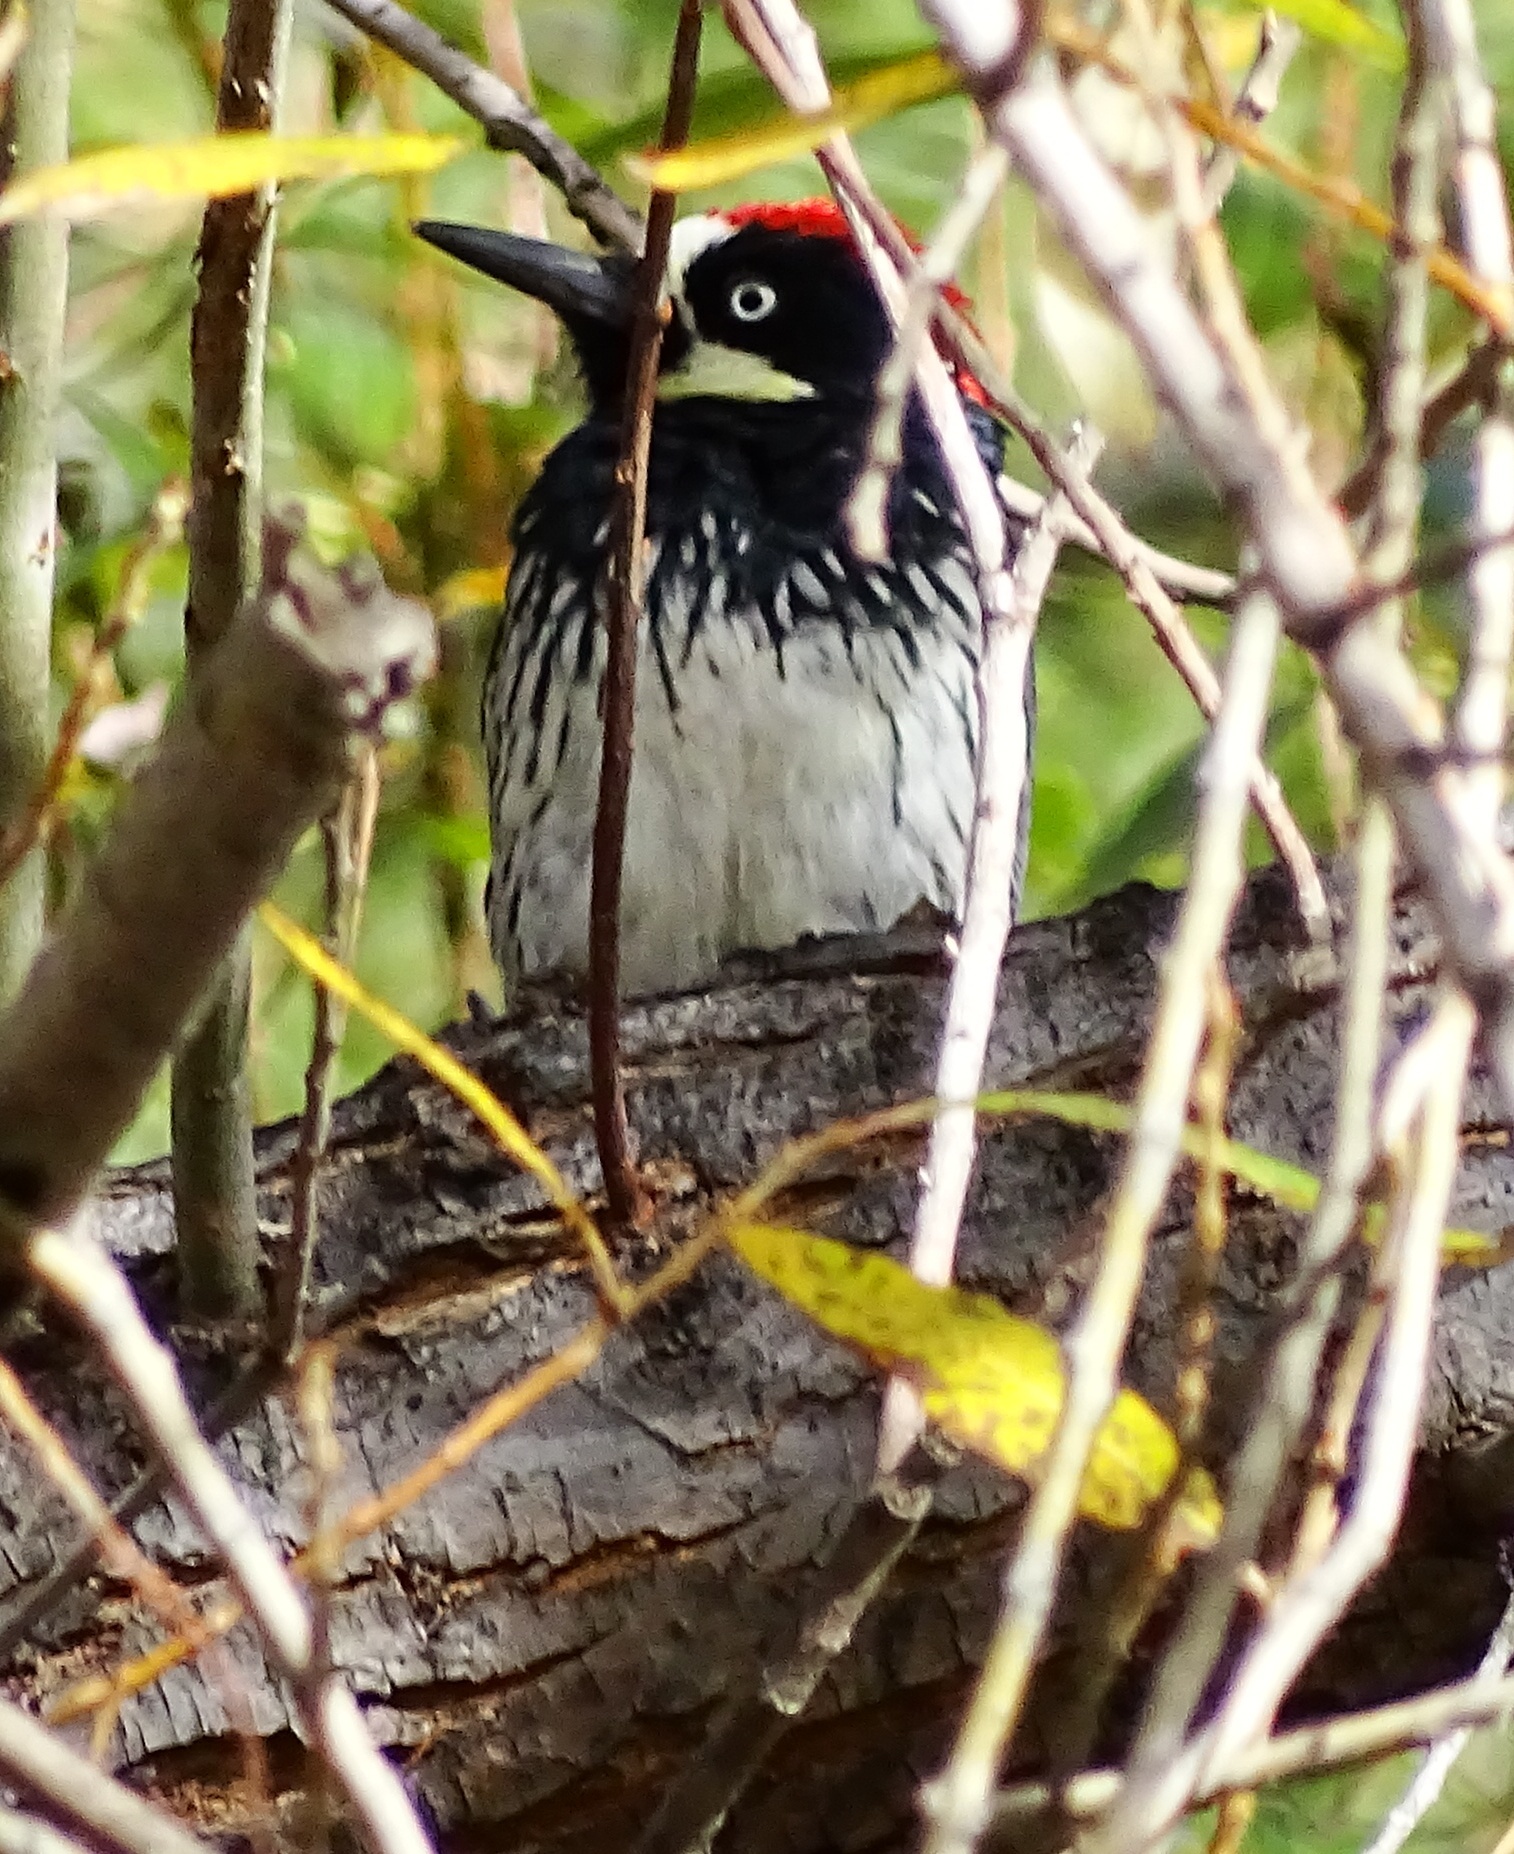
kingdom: Animalia
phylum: Chordata
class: Aves
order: Piciformes
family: Picidae
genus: Melanerpes
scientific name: Melanerpes formicivorus
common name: Acorn woodpecker
